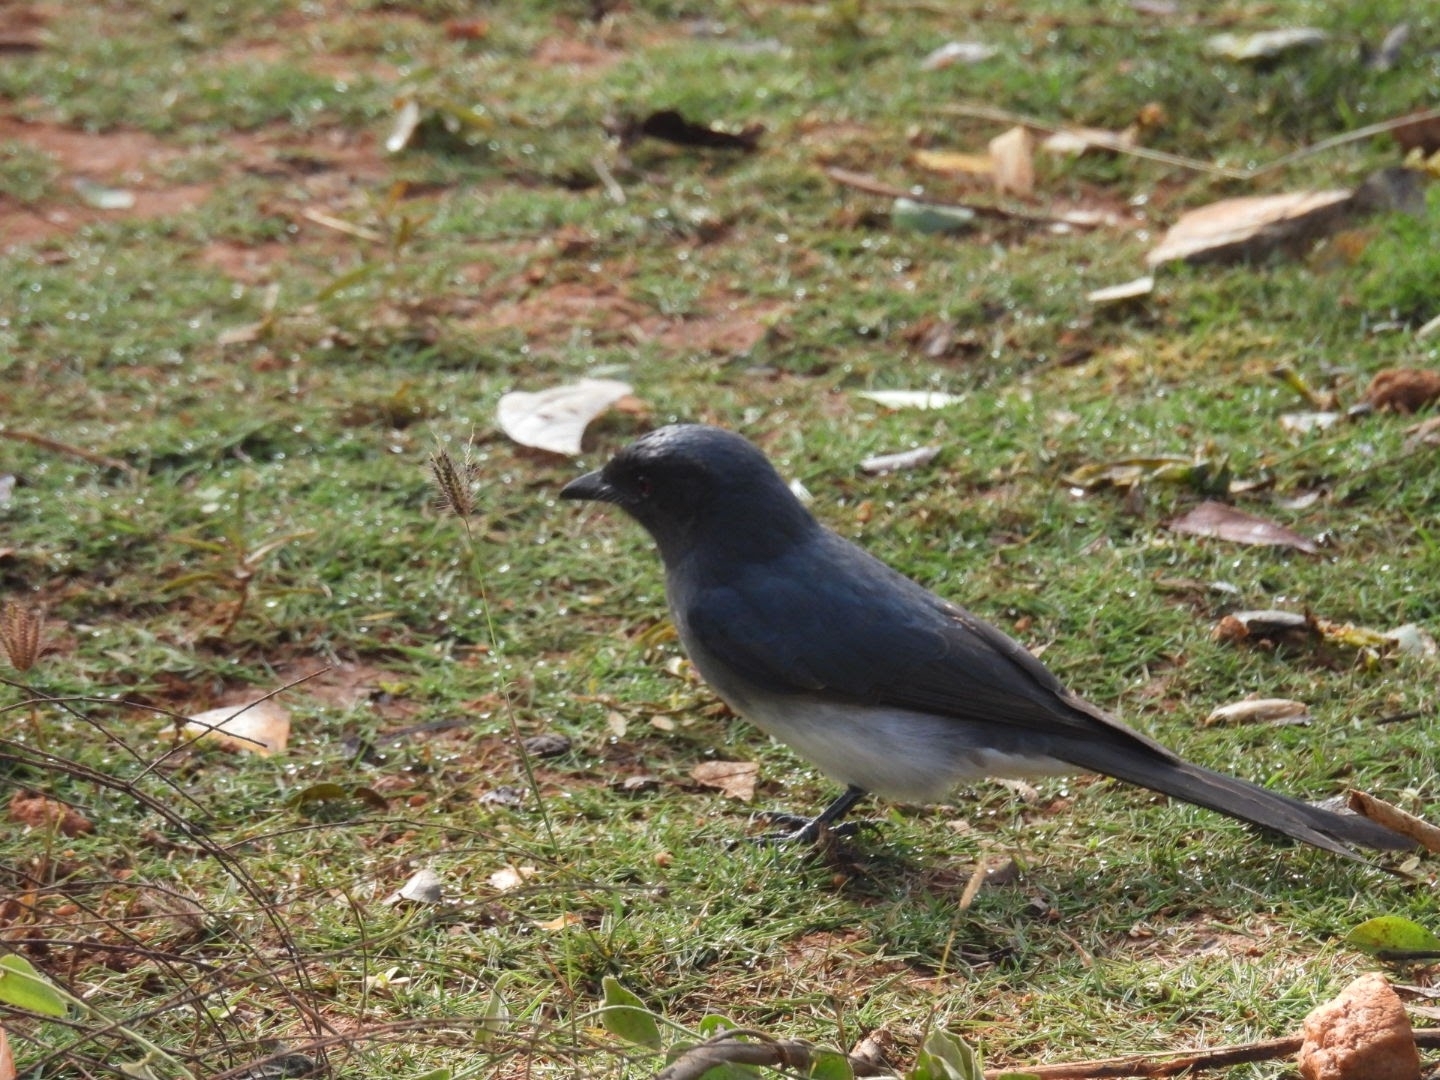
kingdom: Animalia
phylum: Chordata
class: Aves
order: Passeriformes
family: Dicruridae
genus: Dicrurus
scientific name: Dicrurus caerulescens
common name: White-bellied drongo
